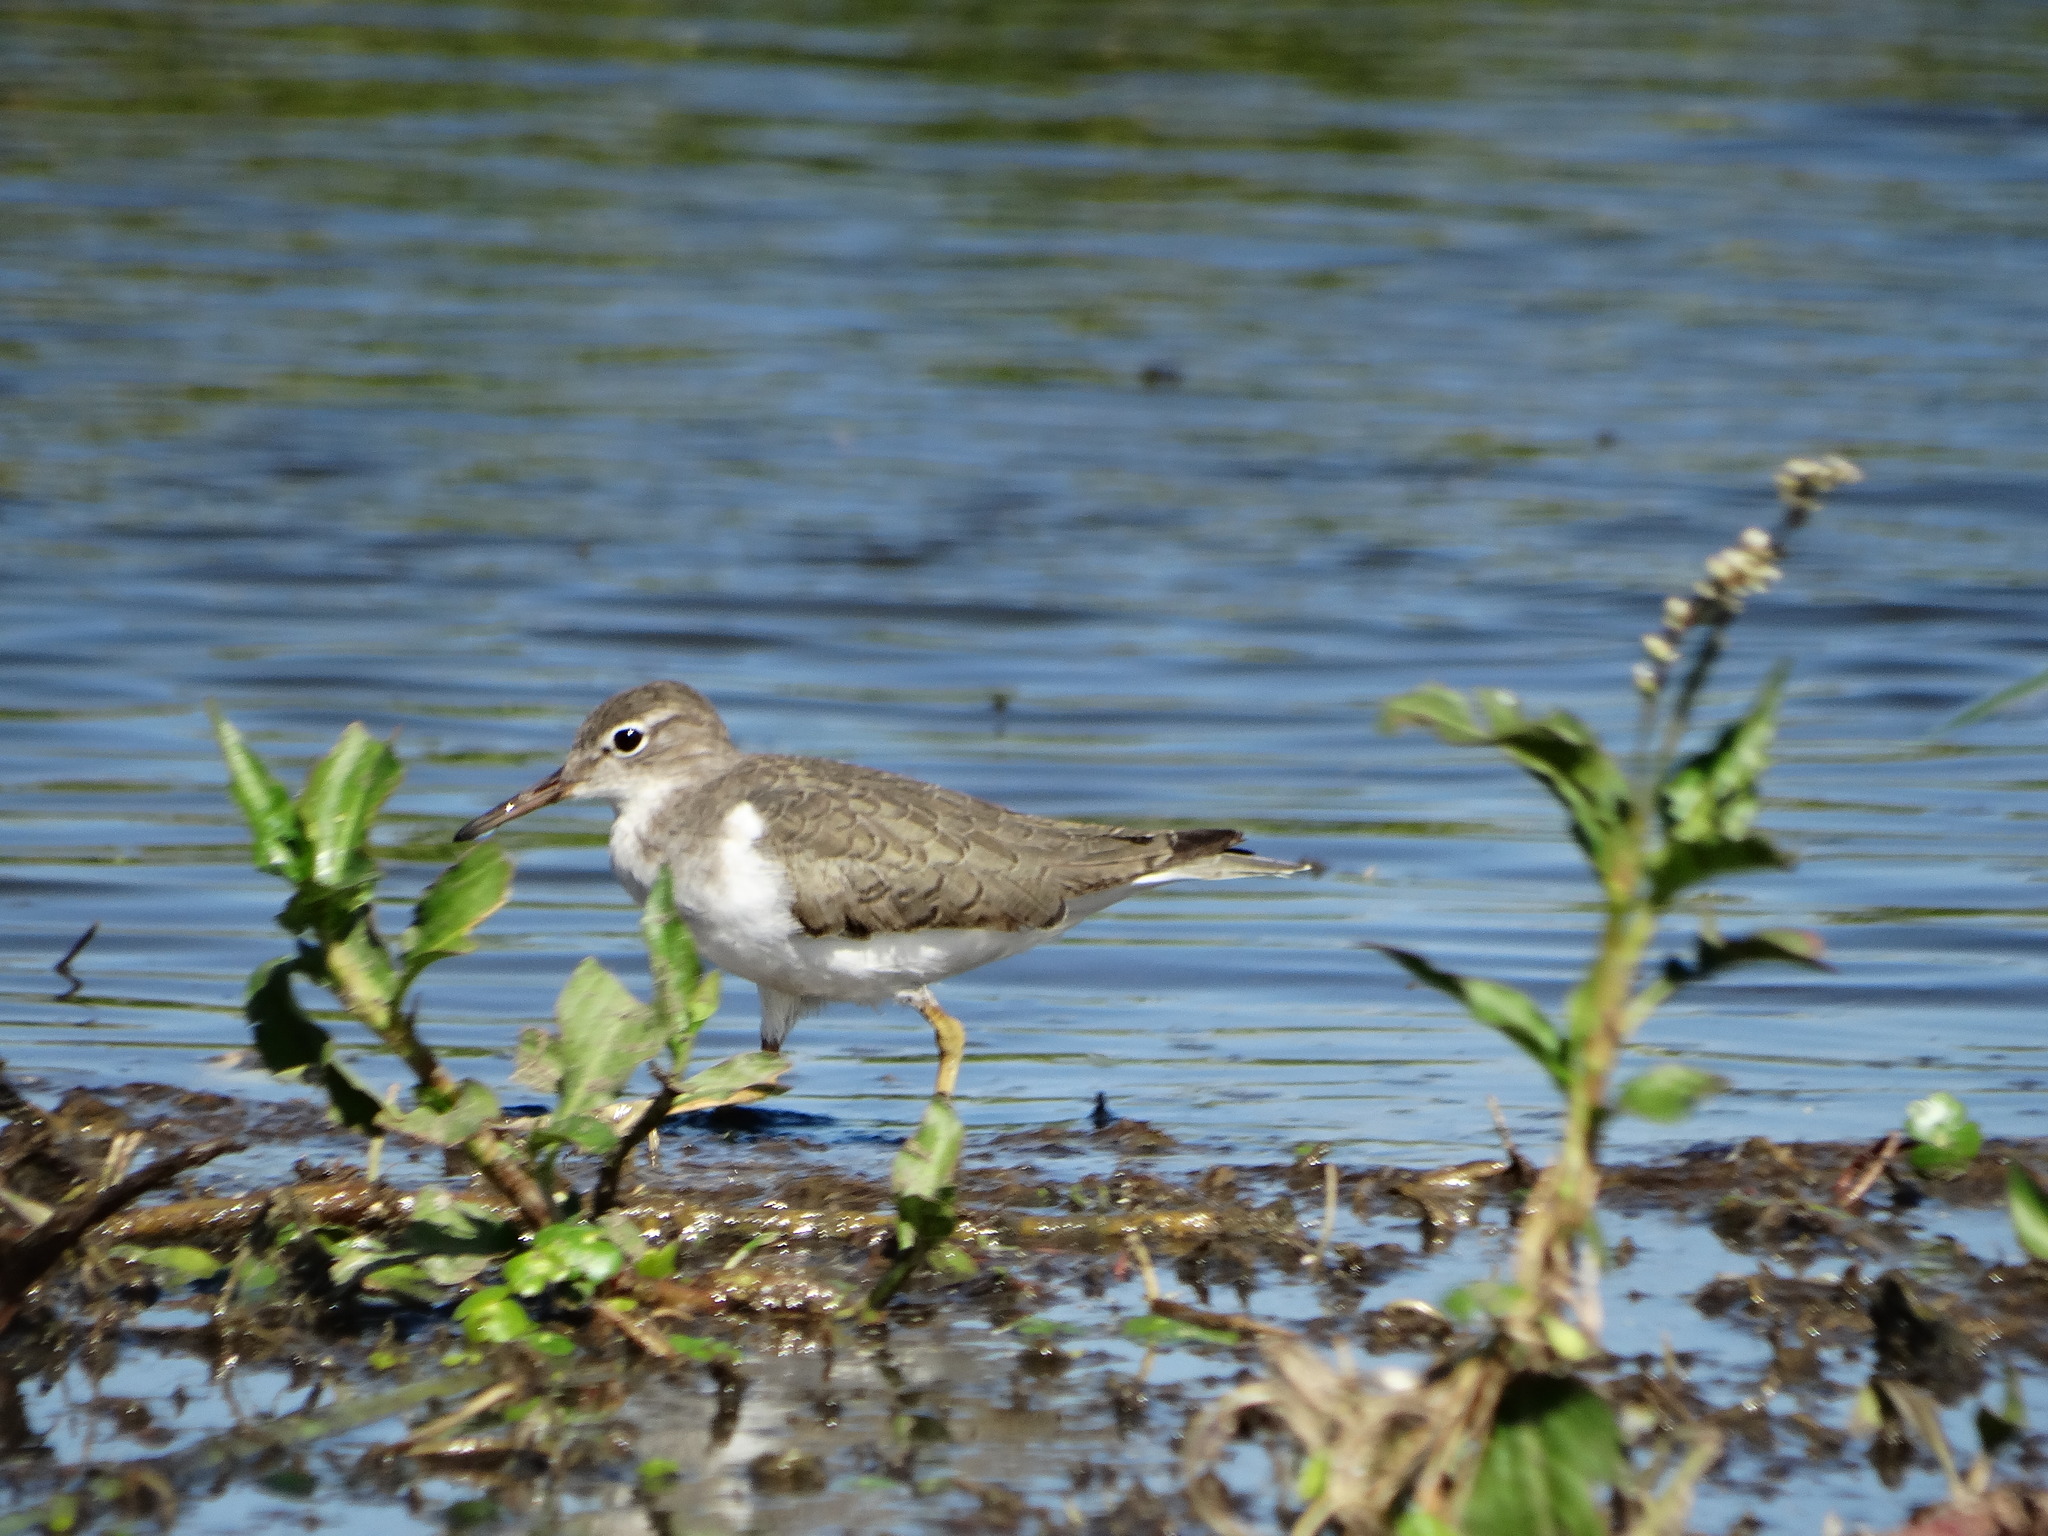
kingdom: Animalia
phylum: Chordata
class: Aves
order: Charadriiformes
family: Scolopacidae
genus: Actitis
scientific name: Actitis macularius
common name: Spotted sandpiper
